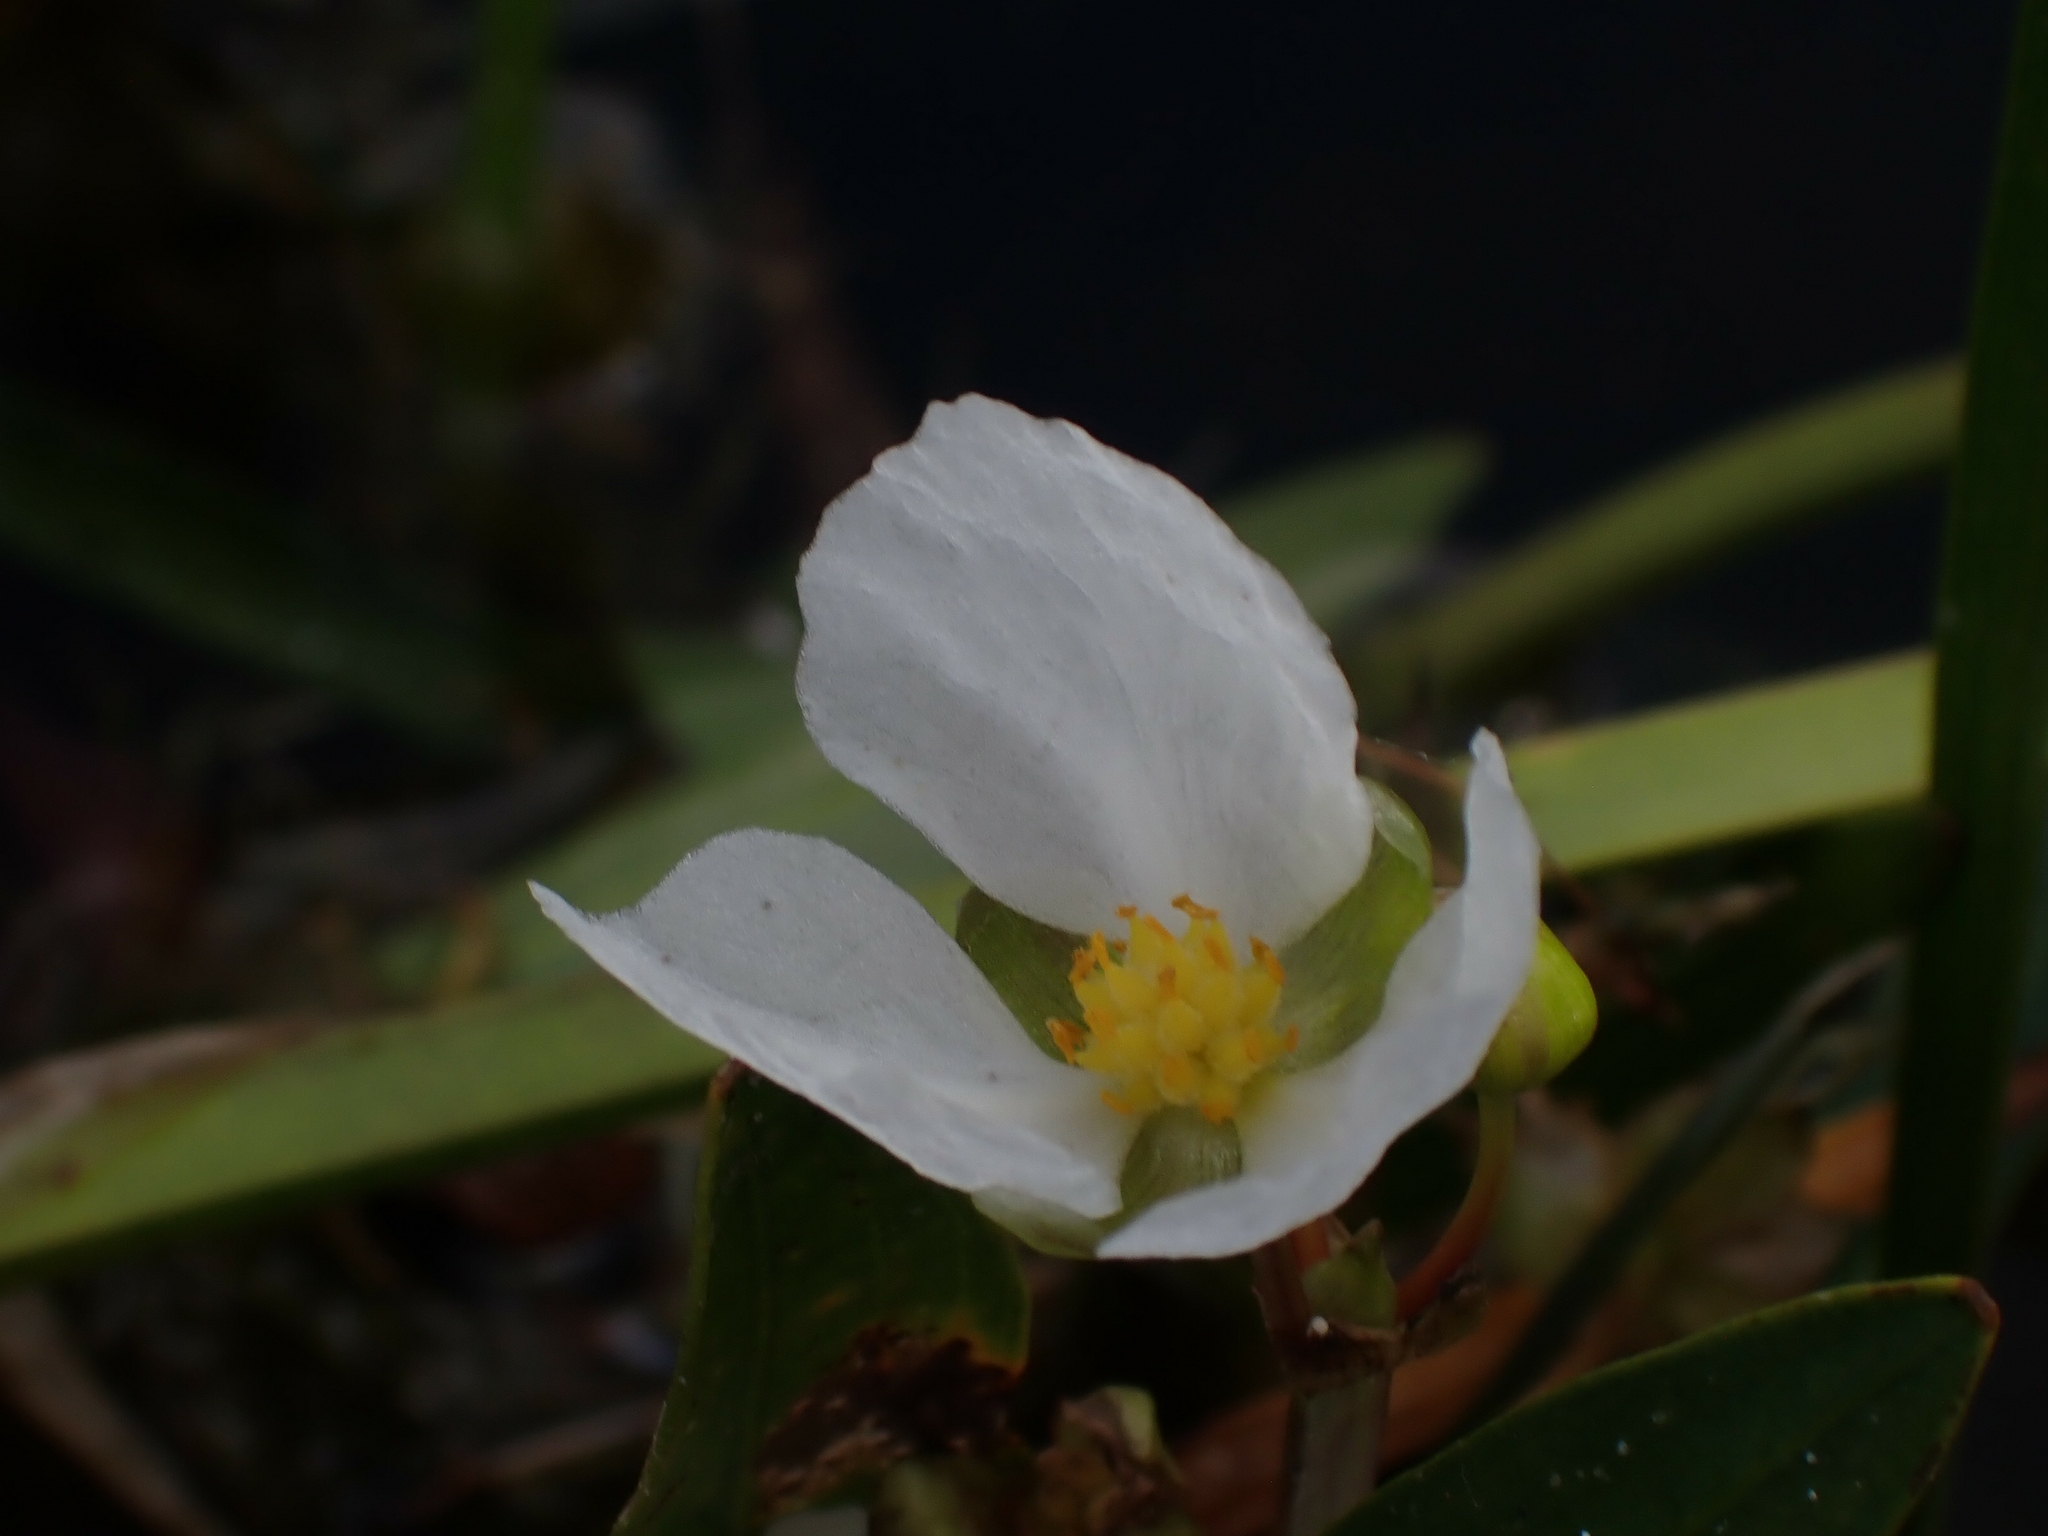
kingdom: Plantae
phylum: Tracheophyta
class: Liliopsida
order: Alismatales
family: Alismataceae
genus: Sagittaria
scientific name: Sagittaria rigida
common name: Canadian arrowhead
